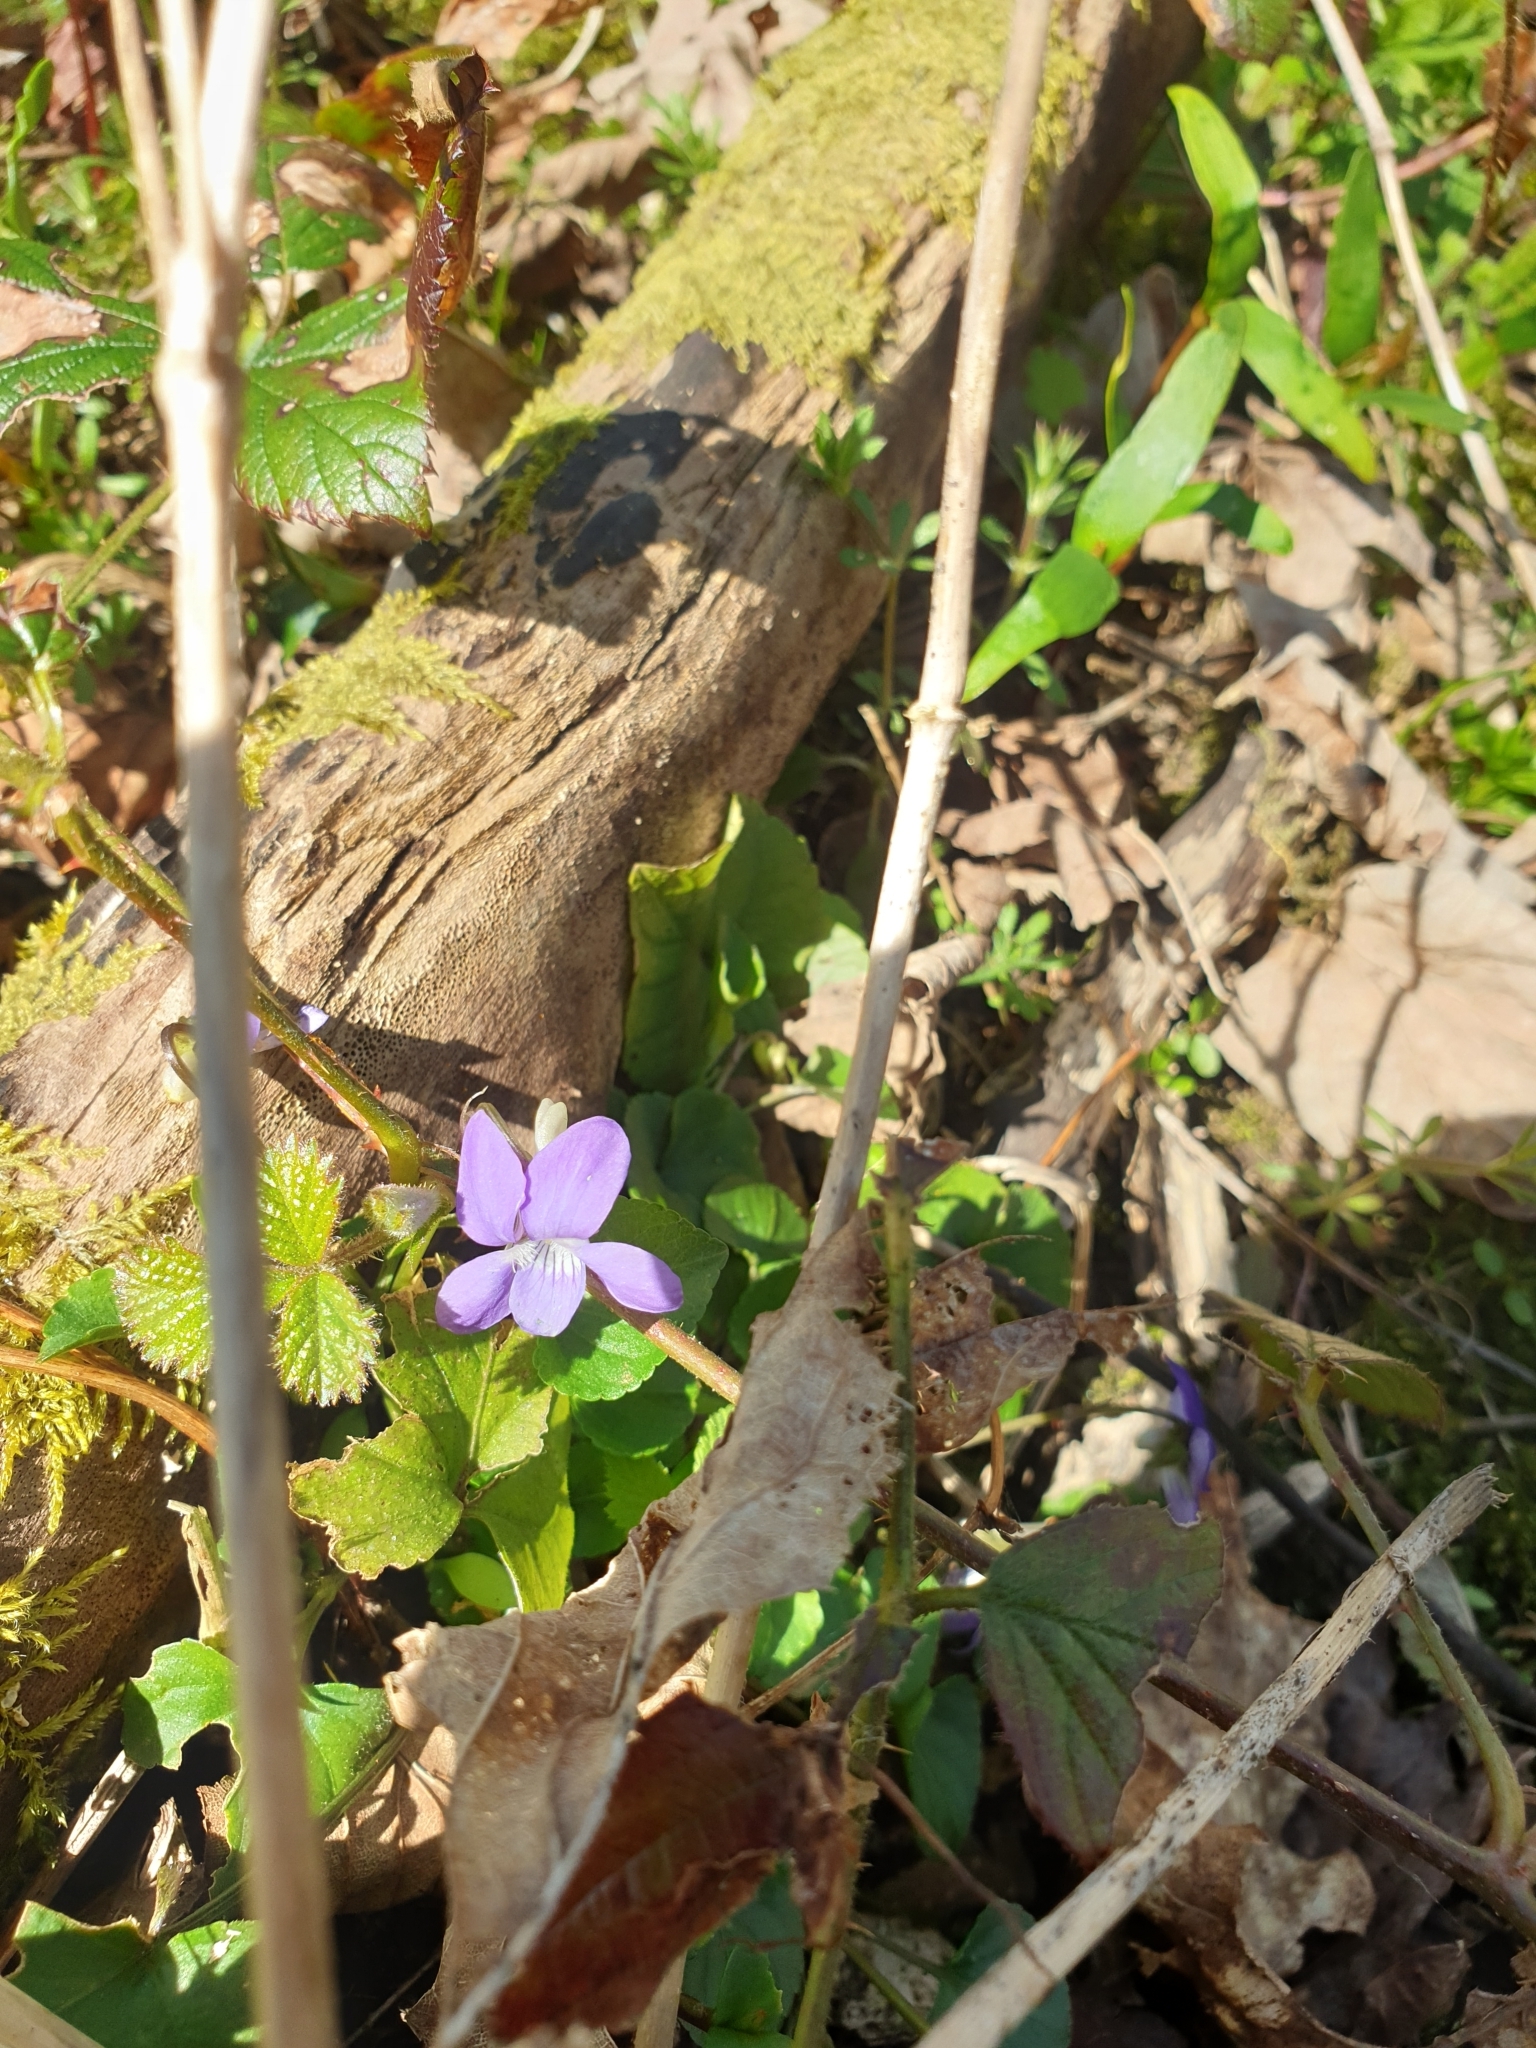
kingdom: Plantae
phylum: Tracheophyta
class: Magnoliopsida
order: Malpighiales
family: Violaceae
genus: Viola
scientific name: Viola riviniana
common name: Common dog-violet
